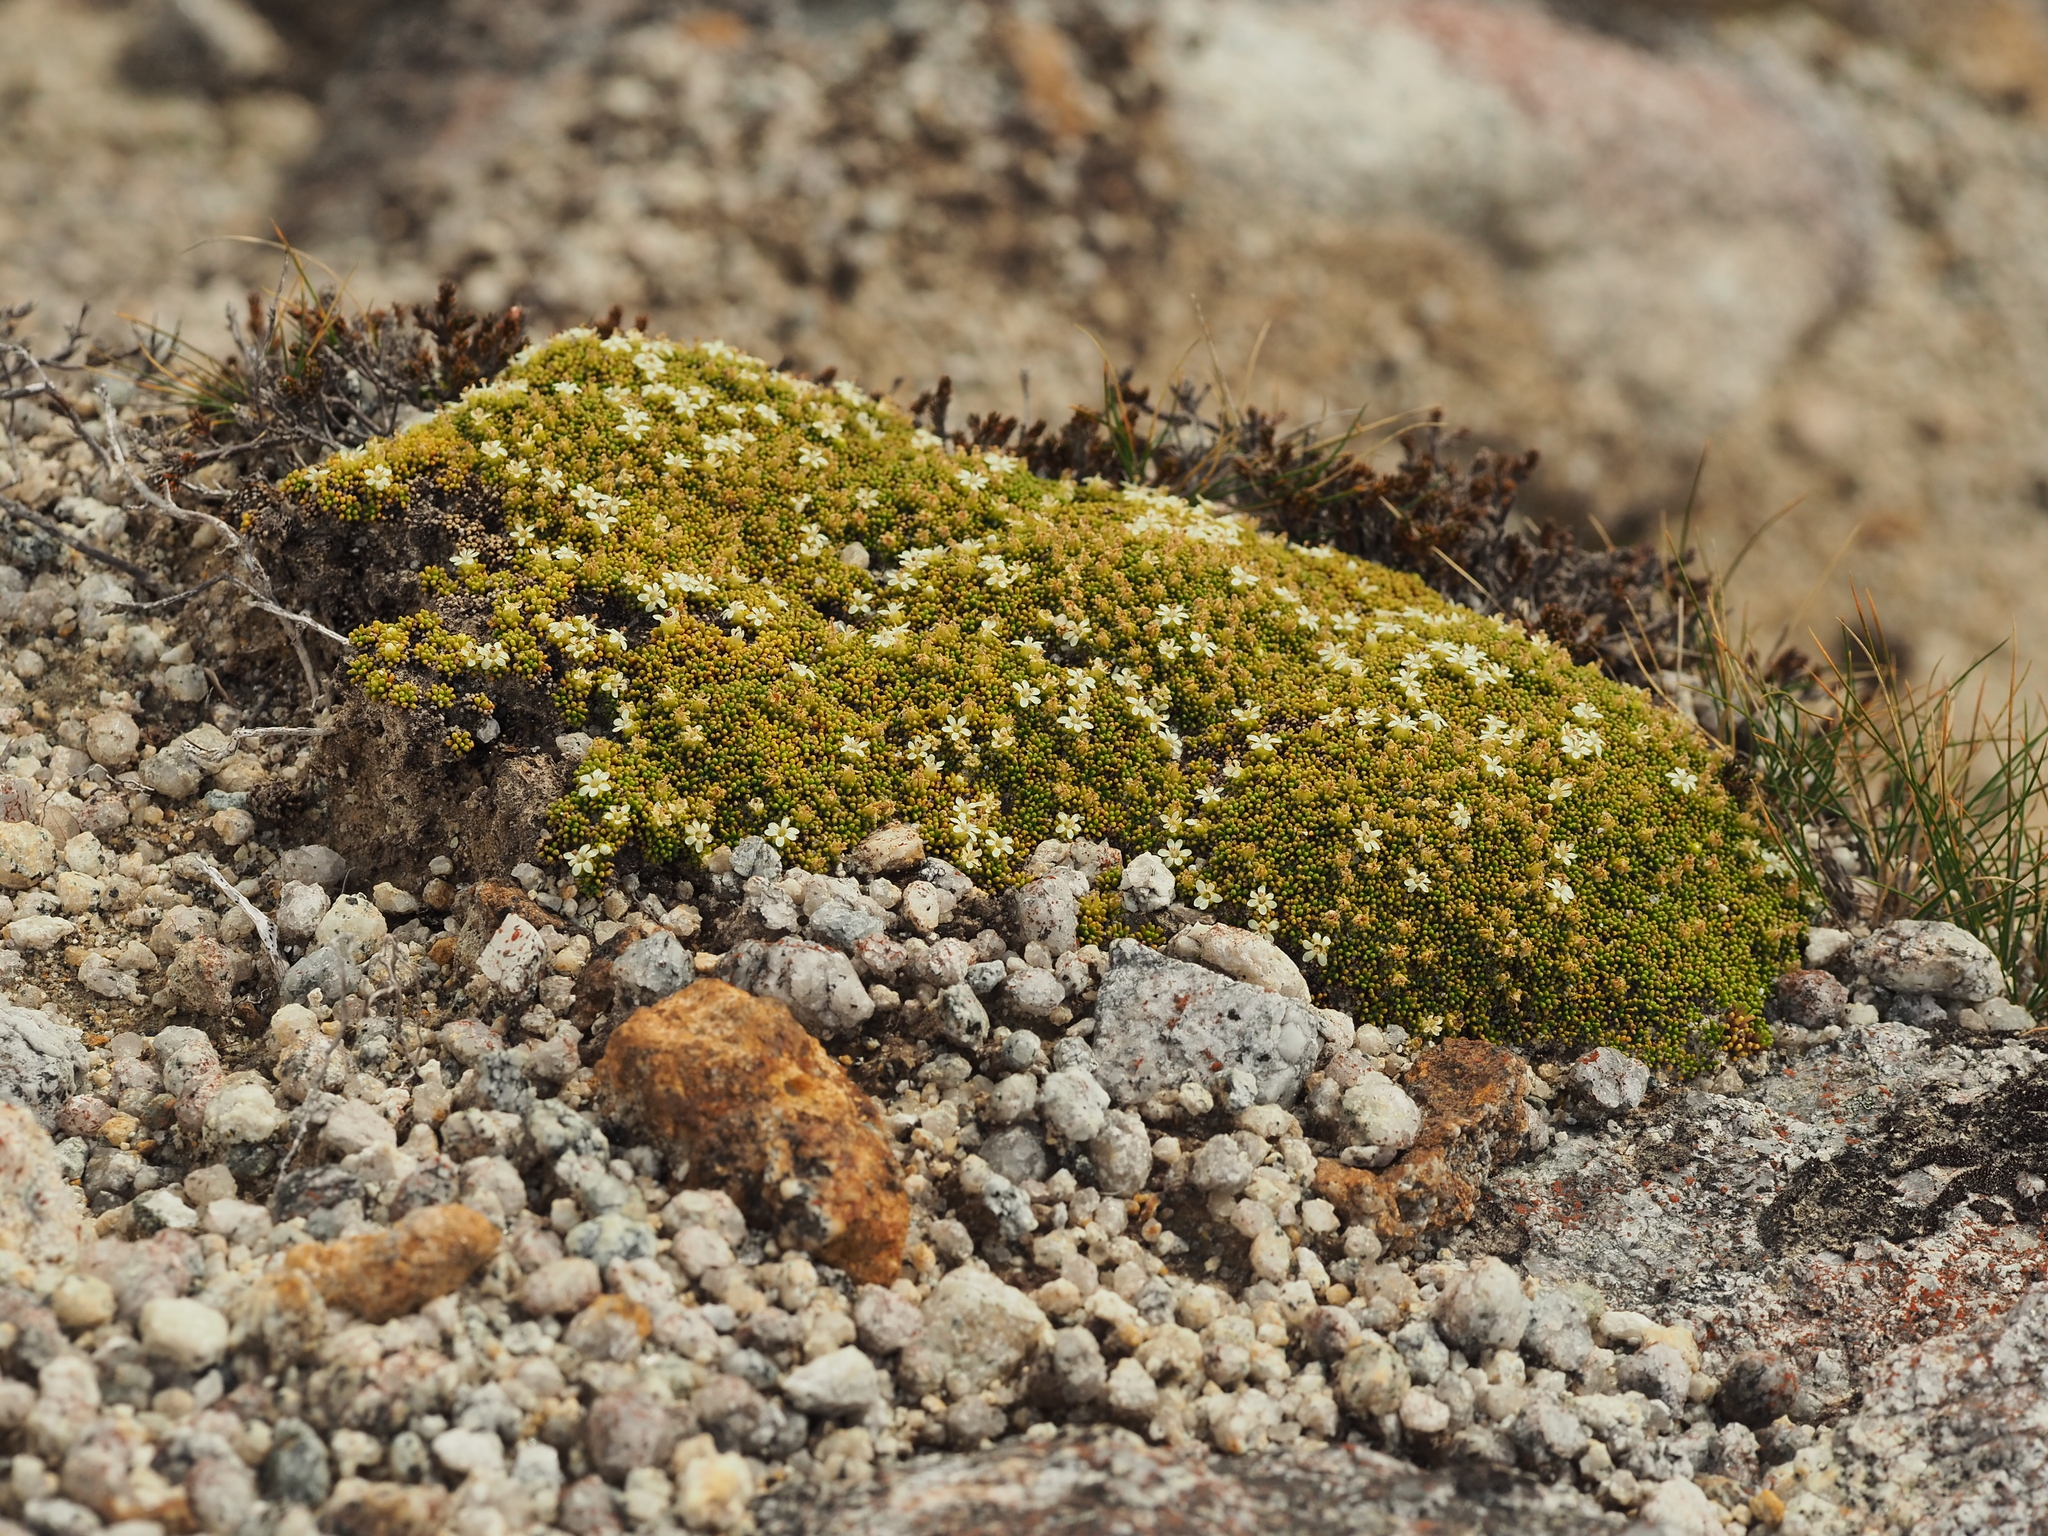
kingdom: Plantae
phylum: Tracheophyta
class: Magnoliopsida
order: Asterales
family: Stylidiaceae
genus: Phyllachne
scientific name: Phyllachne colensoi
